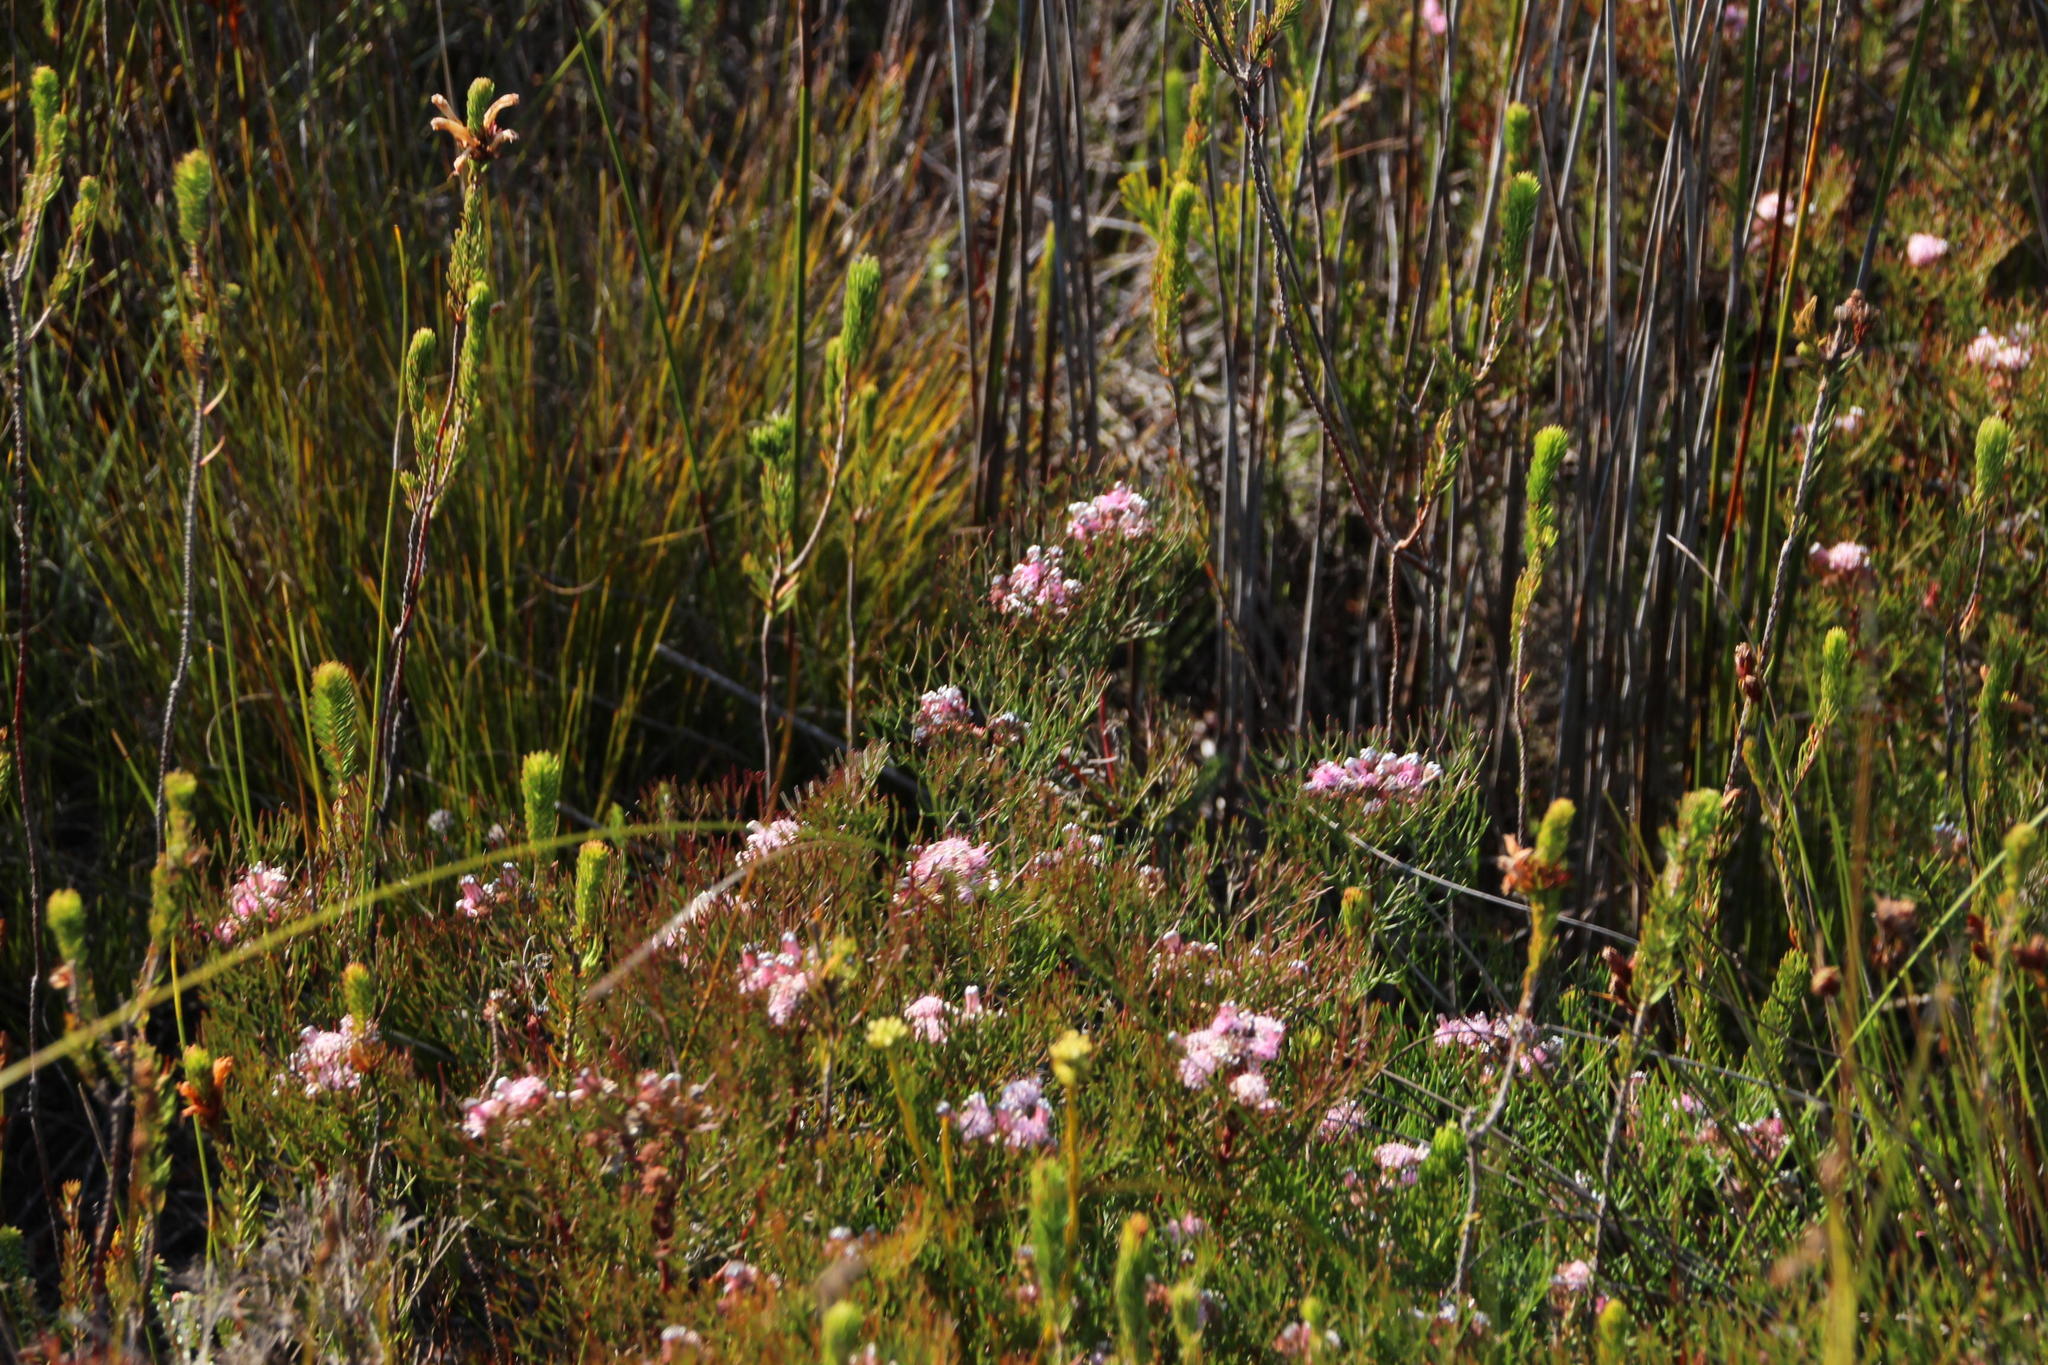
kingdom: Plantae
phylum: Tracheophyta
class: Magnoliopsida
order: Proteales
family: Proteaceae
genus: Serruria
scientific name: Serruria fasciflora
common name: Common pin spiderhead
